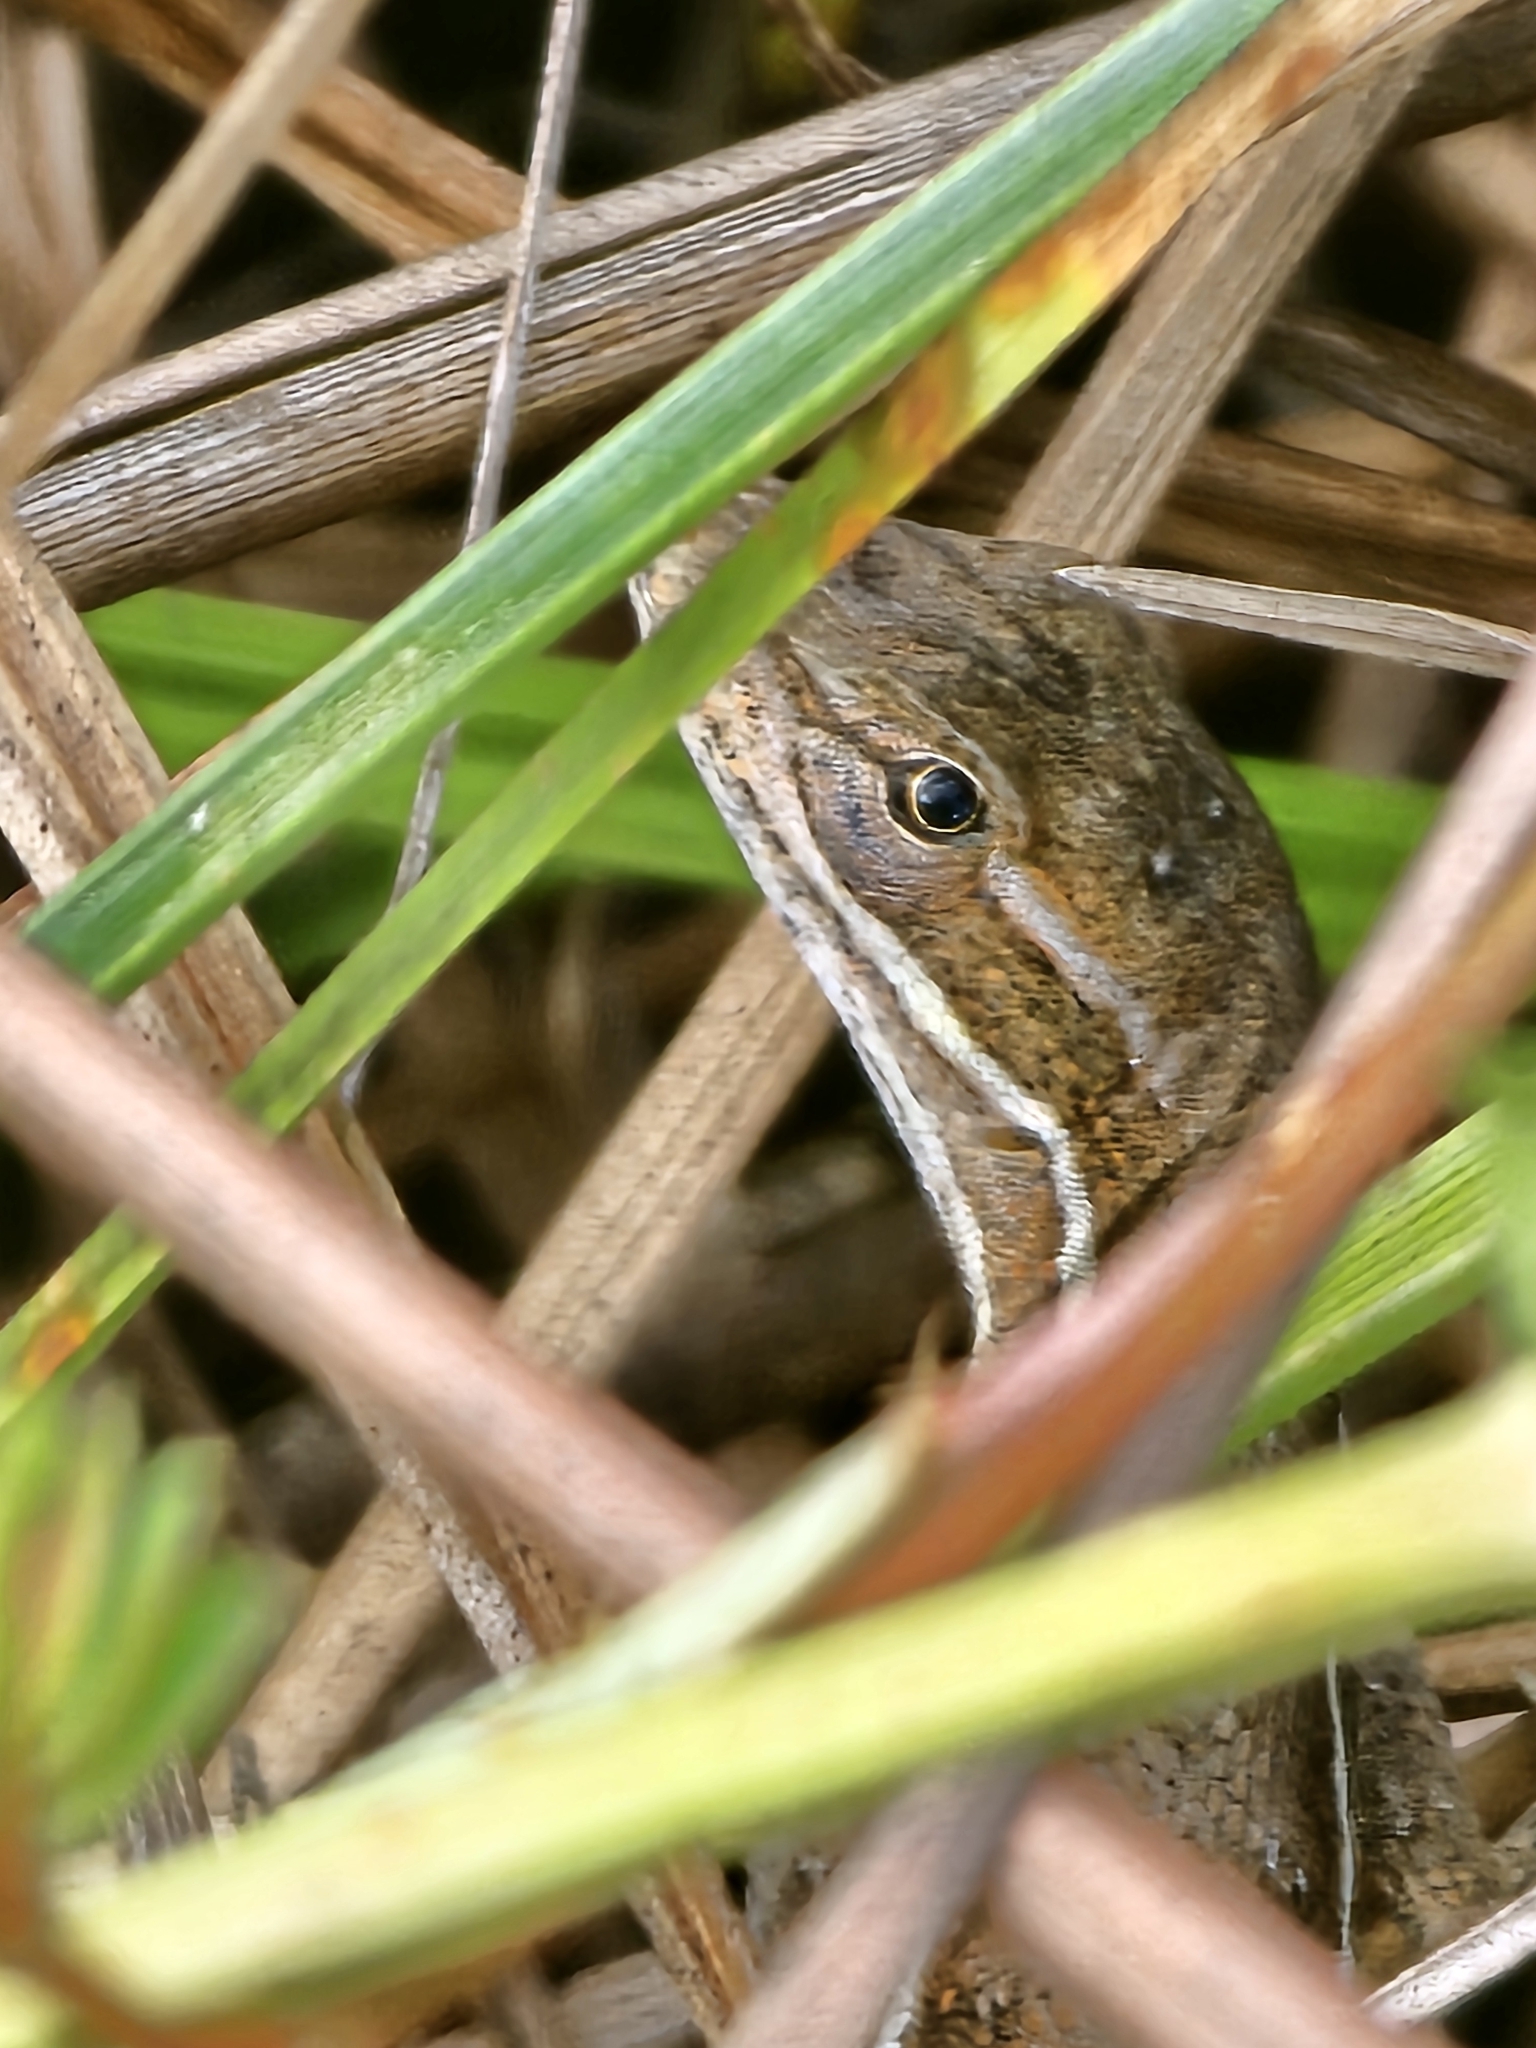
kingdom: Animalia
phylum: Chordata
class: Squamata
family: Dactyloidae
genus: Anolis
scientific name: Anolis auratus
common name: Grass anole
